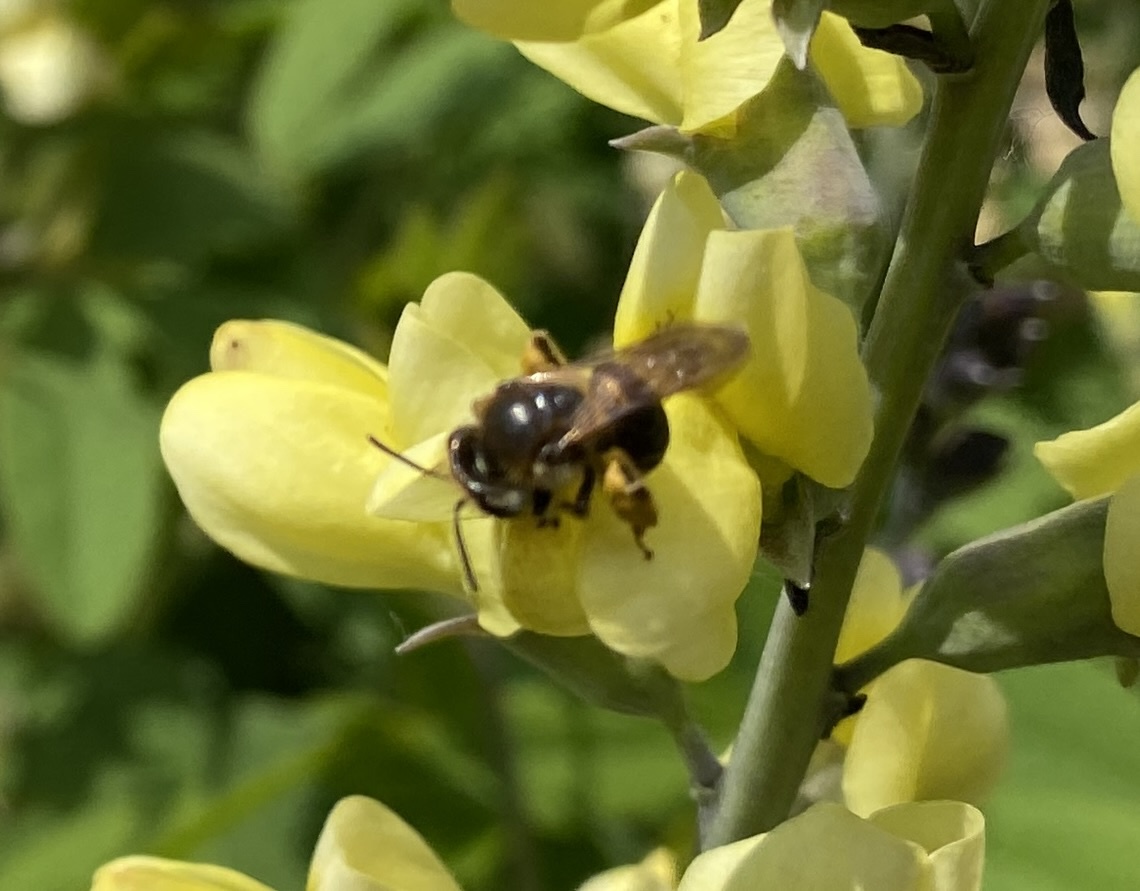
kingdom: Animalia
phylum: Arthropoda
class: Insecta
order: Hymenoptera
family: Andrenidae
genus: Andrena
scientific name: Andrena wilkella
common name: Wilke's mining bee
